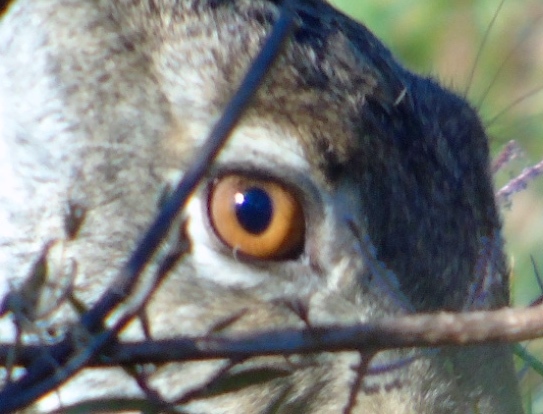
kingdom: Animalia
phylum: Chordata
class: Mammalia
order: Lagomorpha
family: Leporidae
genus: Lepus
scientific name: Lepus alleni
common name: Antelope jackrabbit
